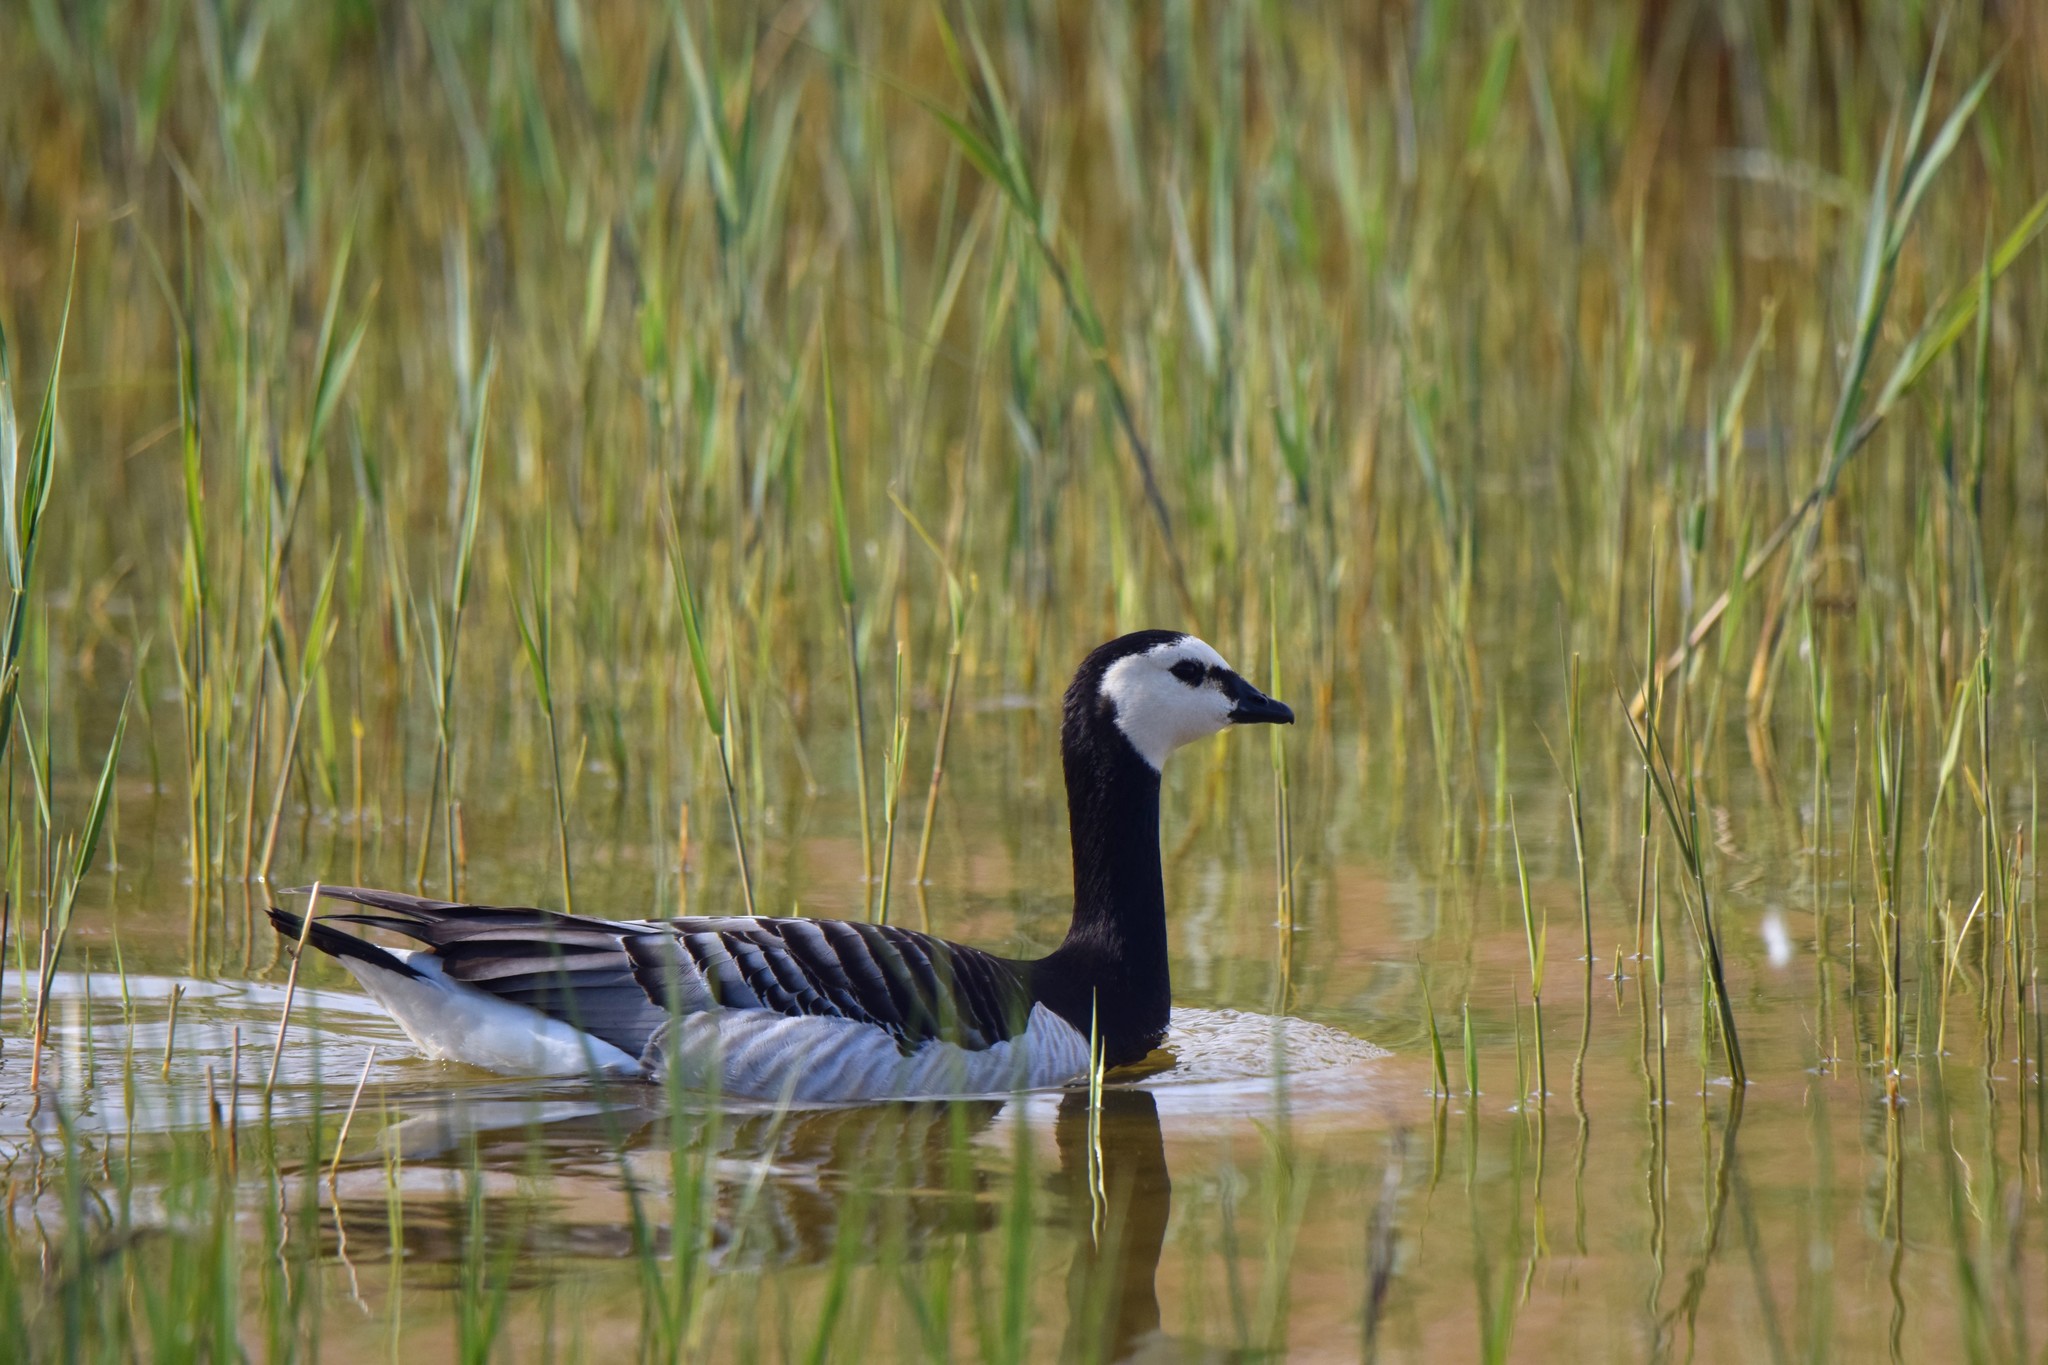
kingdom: Animalia
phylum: Chordata
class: Aves
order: Anseriformes
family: Anatidae
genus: Branta
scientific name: Branta leucopsis
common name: Barnacle goose
